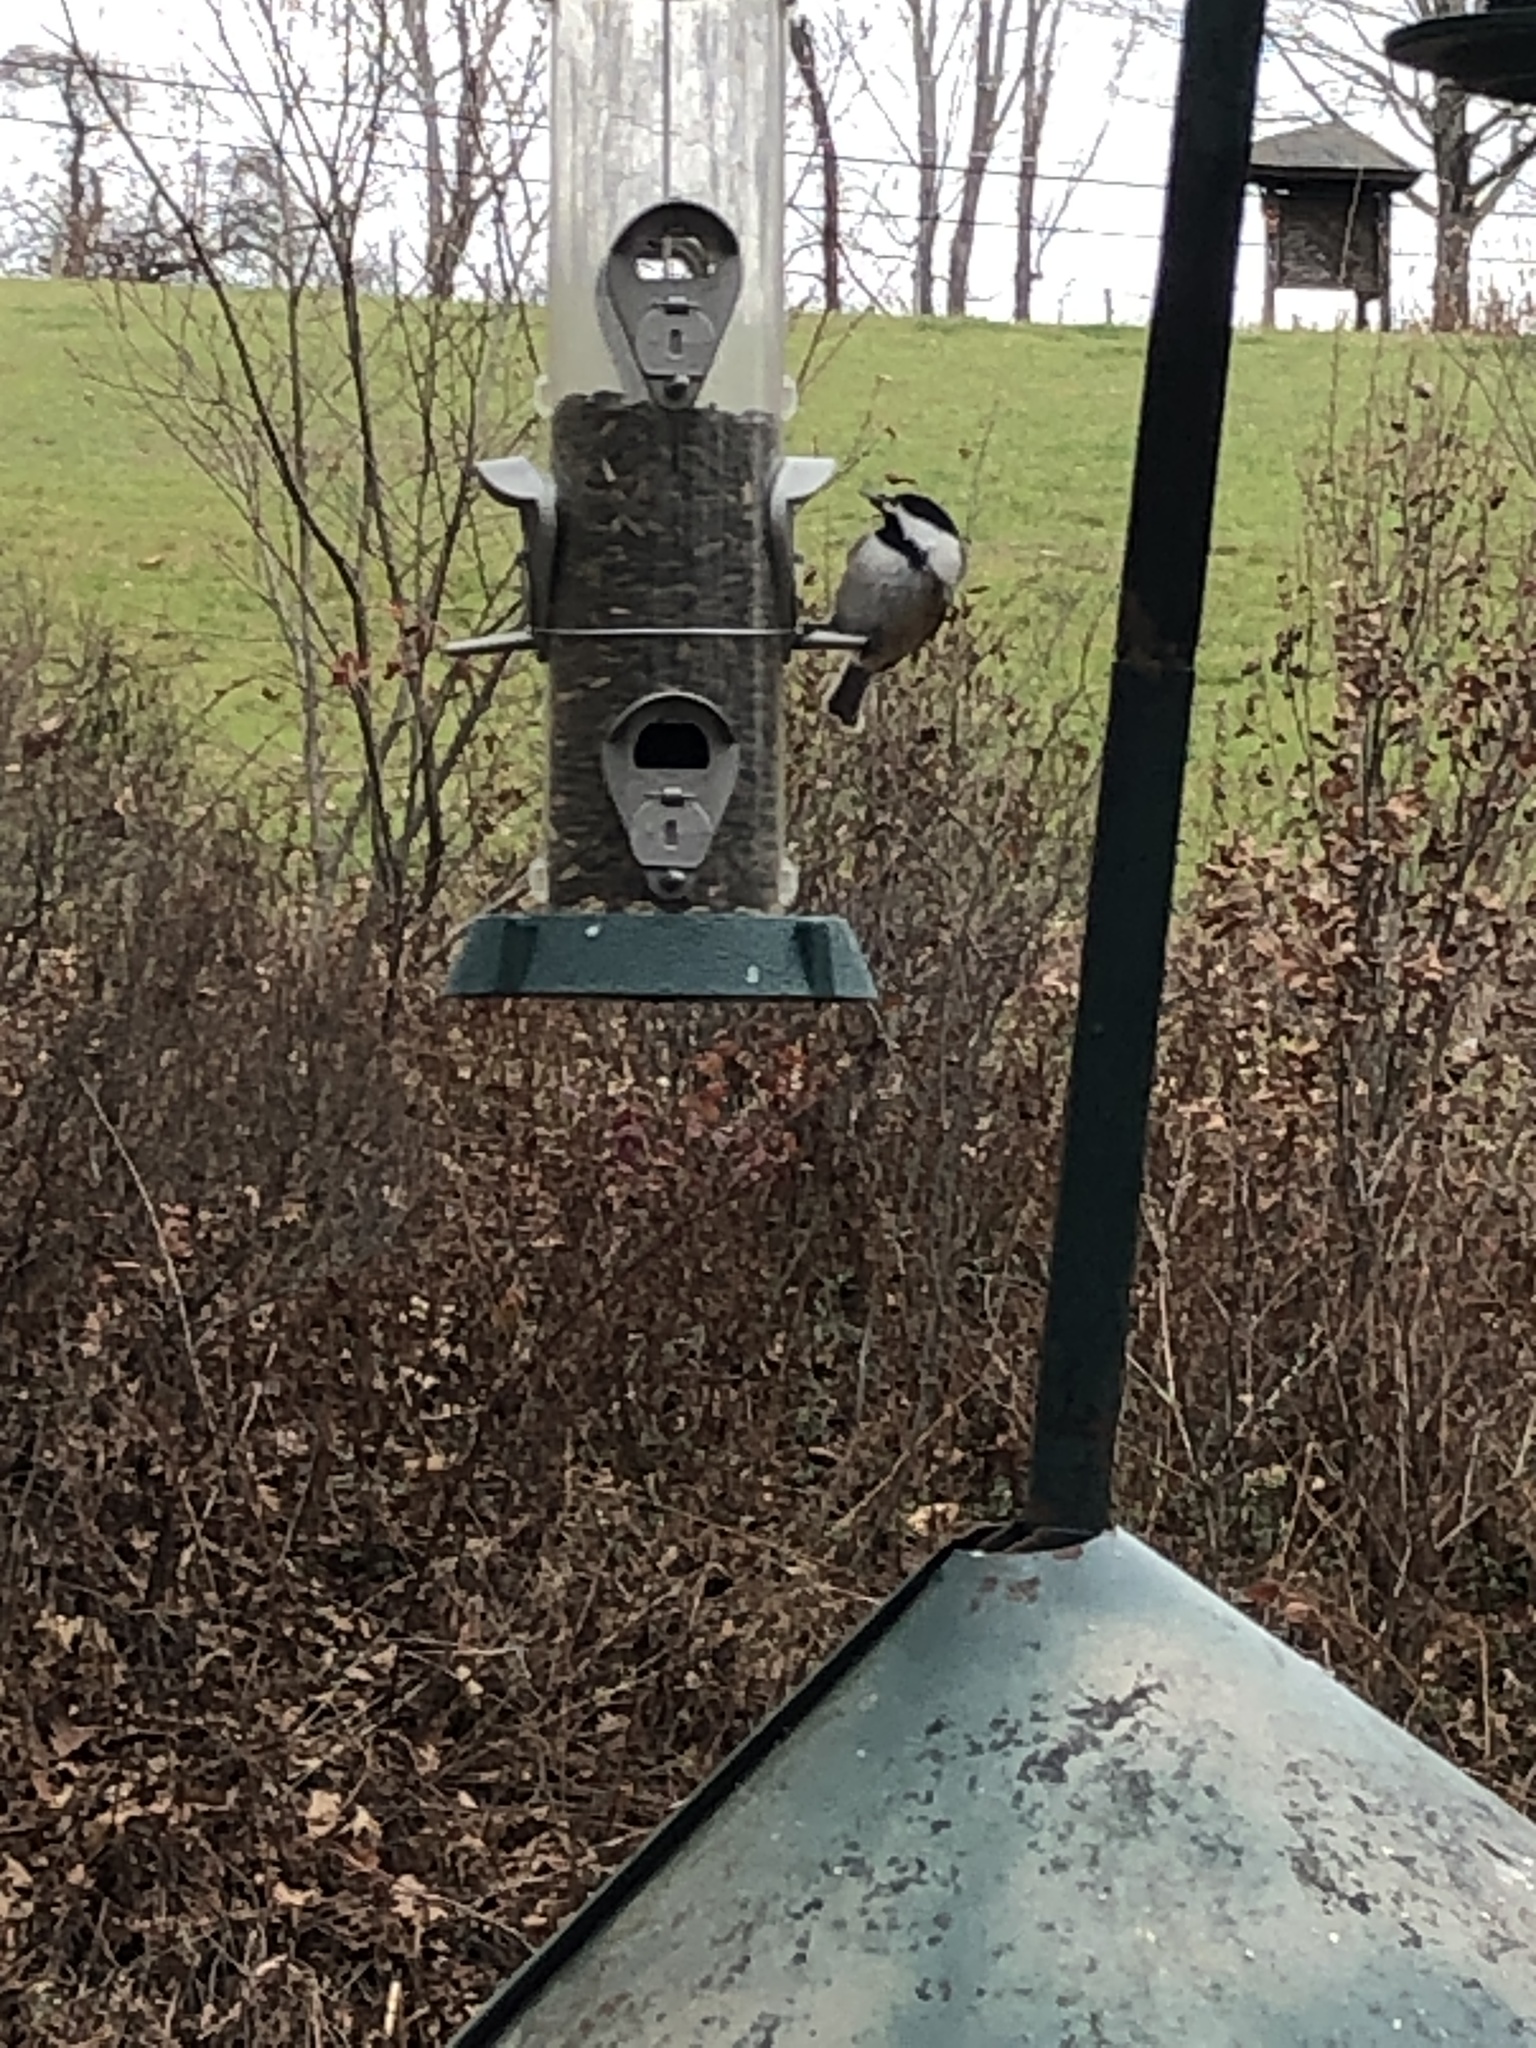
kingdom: Animalia
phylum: Chordata
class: Aves
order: Passeriformes
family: Paridae
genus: Poecile
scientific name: Poecile atricapillus
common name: Black-capped chickadee
